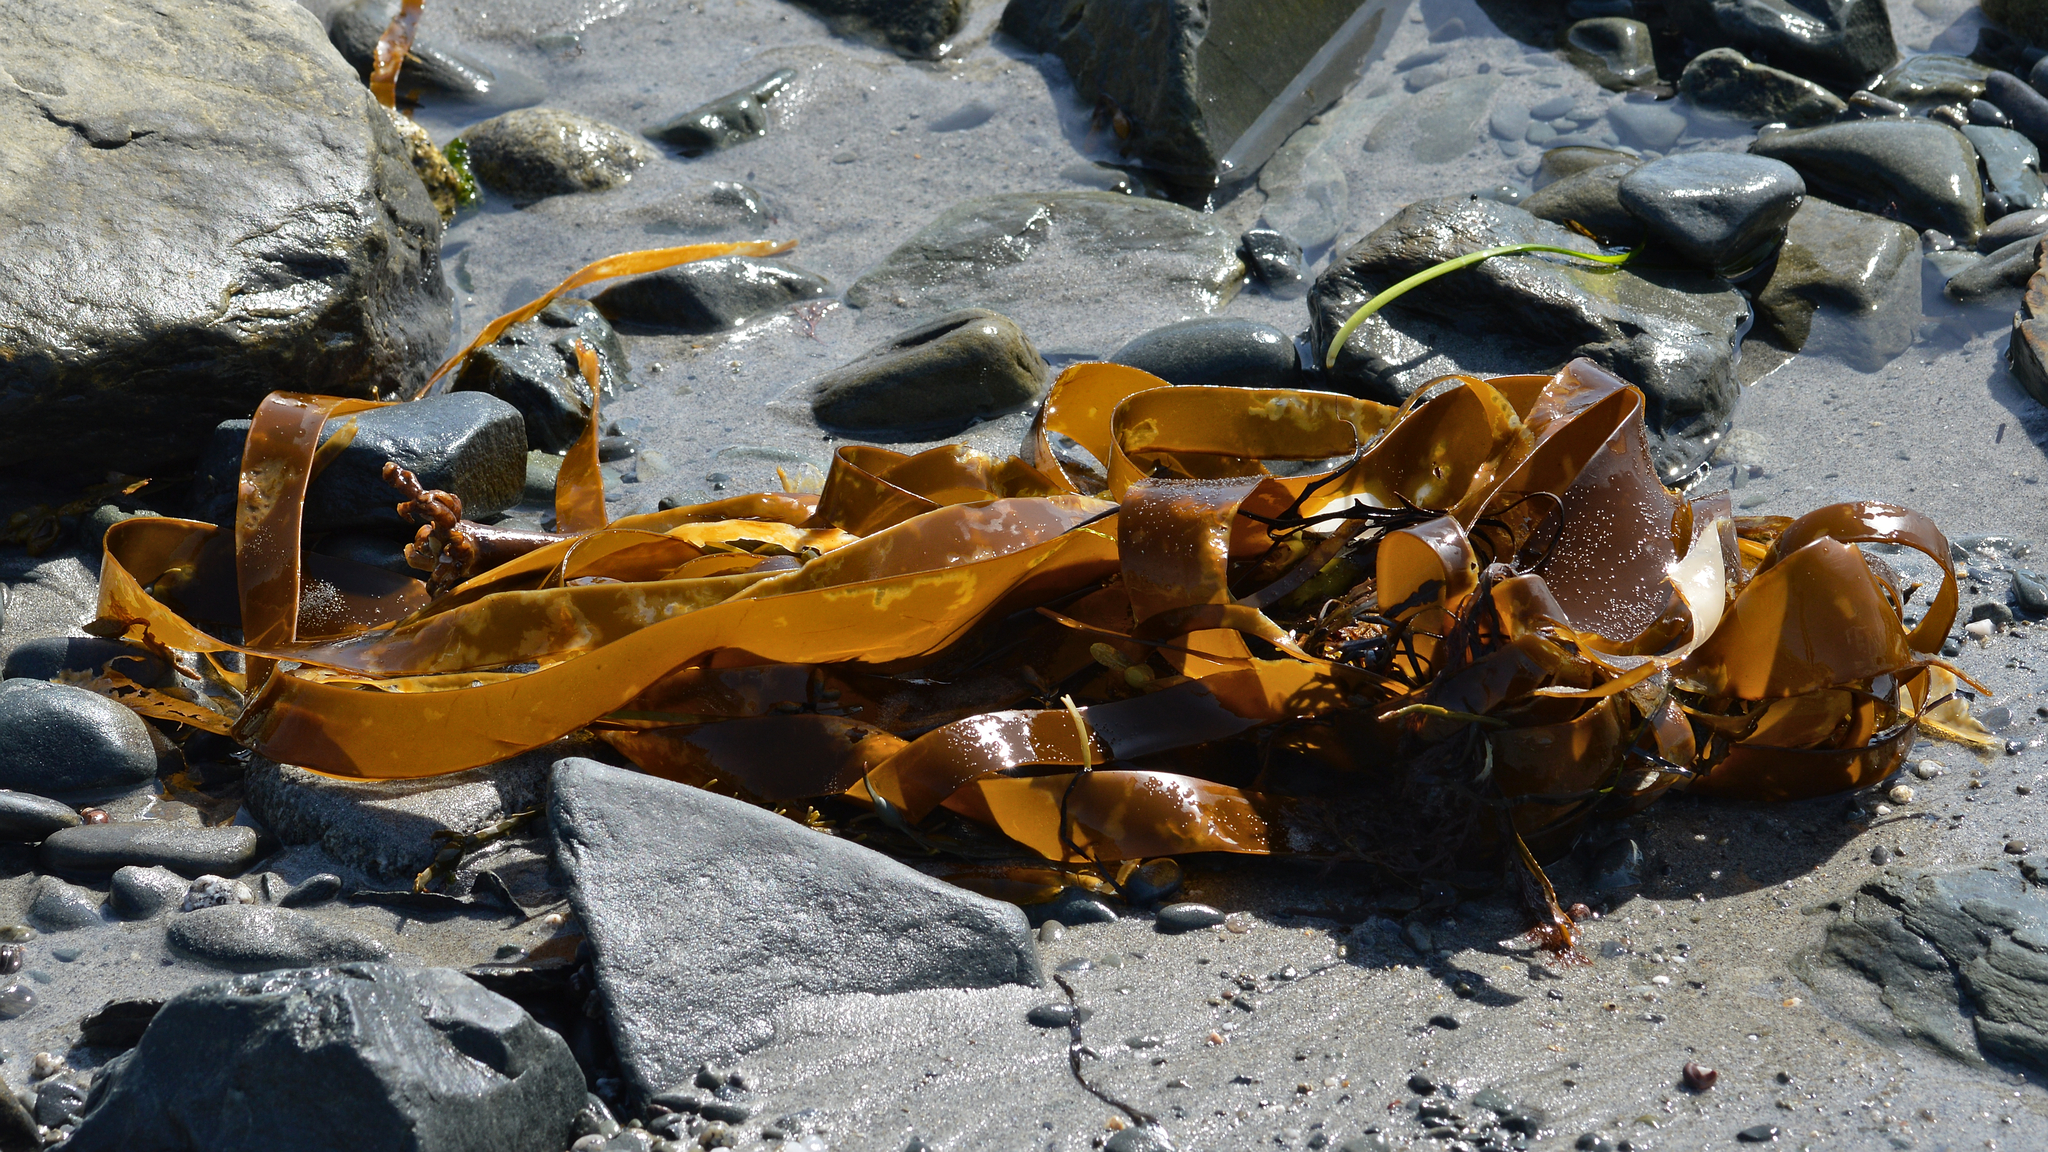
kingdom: Chromista
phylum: Ochrophyta
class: Phaeophyceae
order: Laminariales
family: Laminariaceae
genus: Laminaria
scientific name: Laminaria digitata
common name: Oarweed
